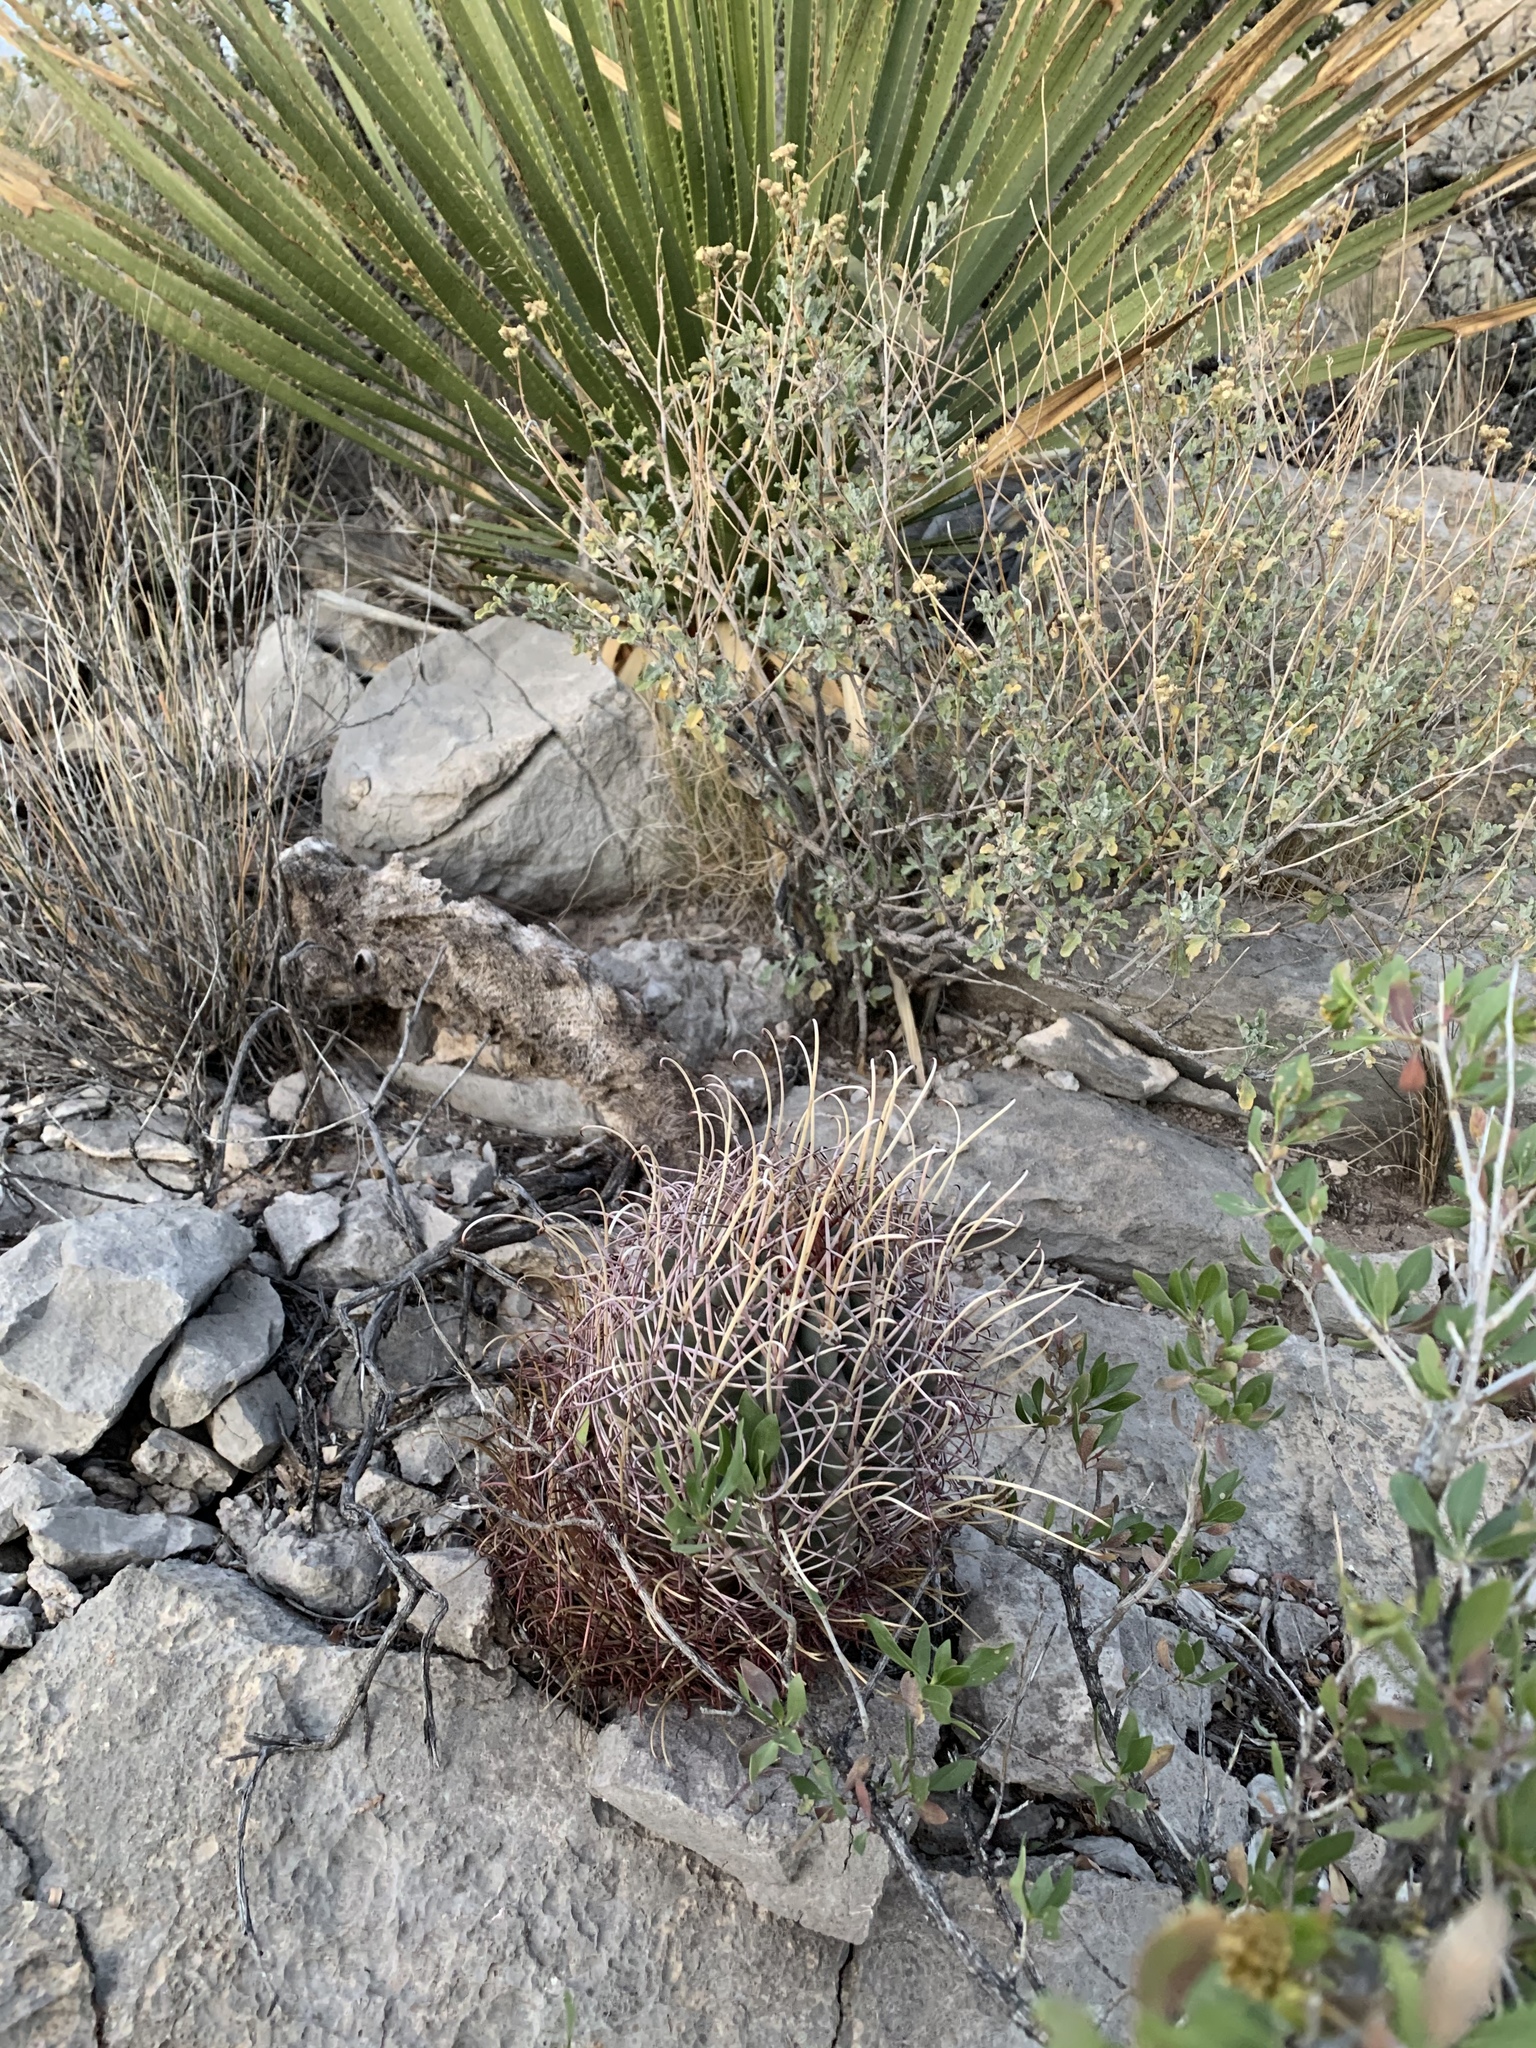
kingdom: Plantae
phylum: Tracheophyta
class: Magnoliopsida
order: Caryophyllales
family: Cactaceae
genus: Ferocactus
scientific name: Ferocactus uncinatus
